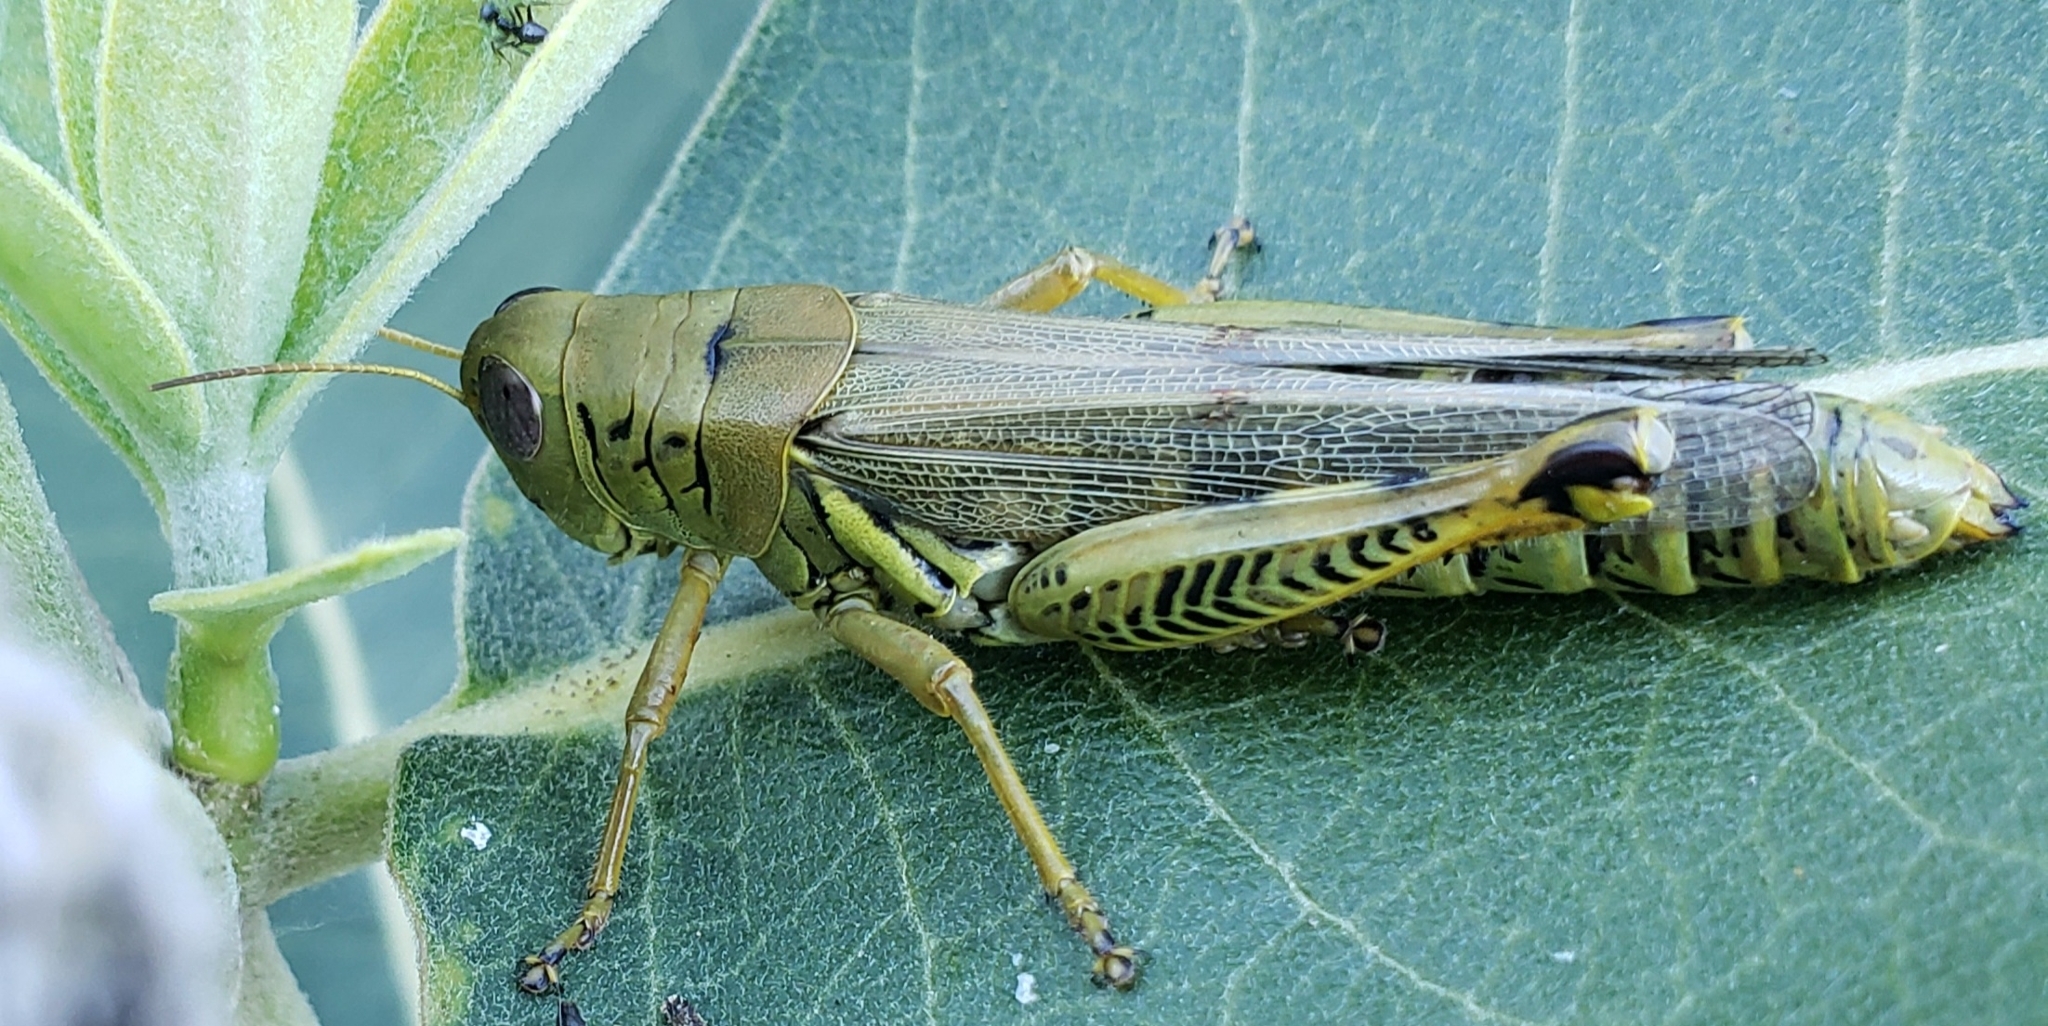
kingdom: Animalia
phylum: Arthropoda
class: Insecta
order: Orthoptera
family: Acrididae
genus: Melanoplus
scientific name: Melanoplus differentialis
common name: Differential grasshopper
